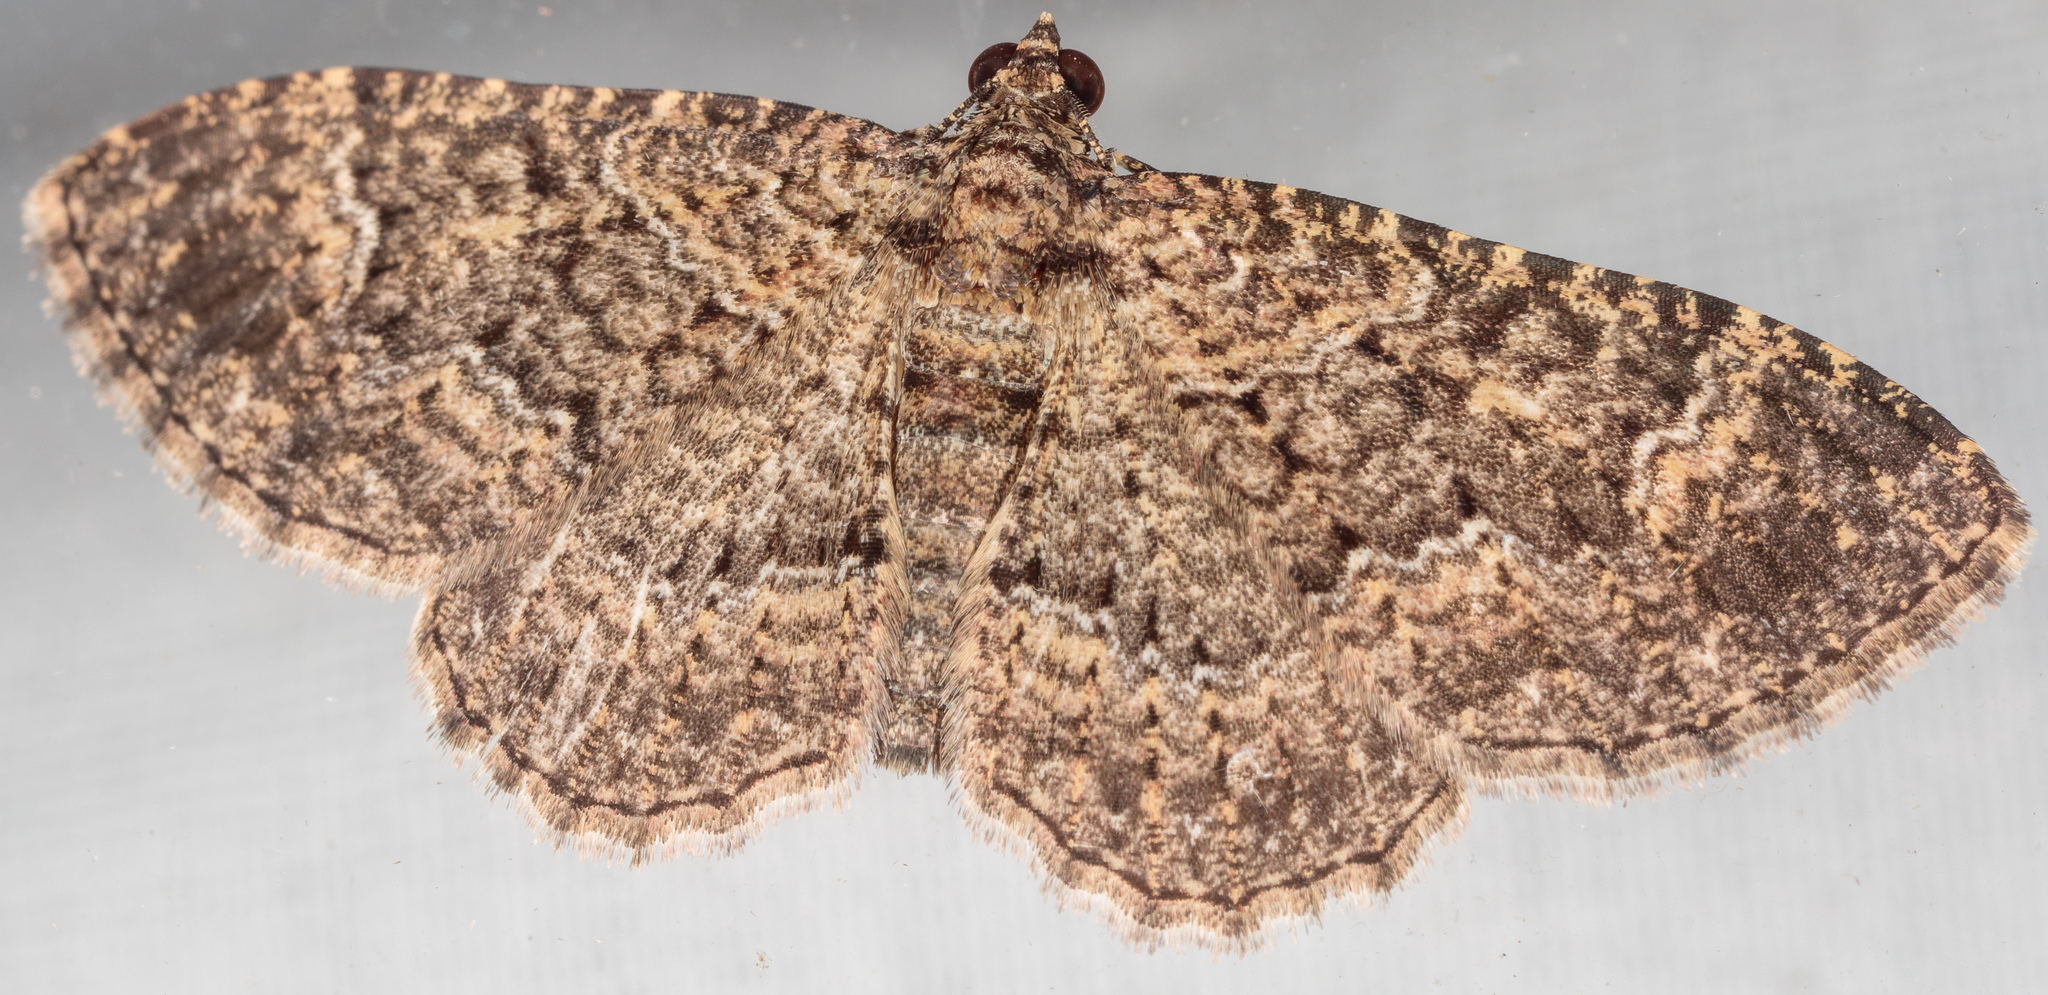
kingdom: Animalia
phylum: Arthropoda
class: Insecta
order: Lepidoptera
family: Geometridae
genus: Disclisioprocta
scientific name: Disclisioprocta stellata
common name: Somber carpet
